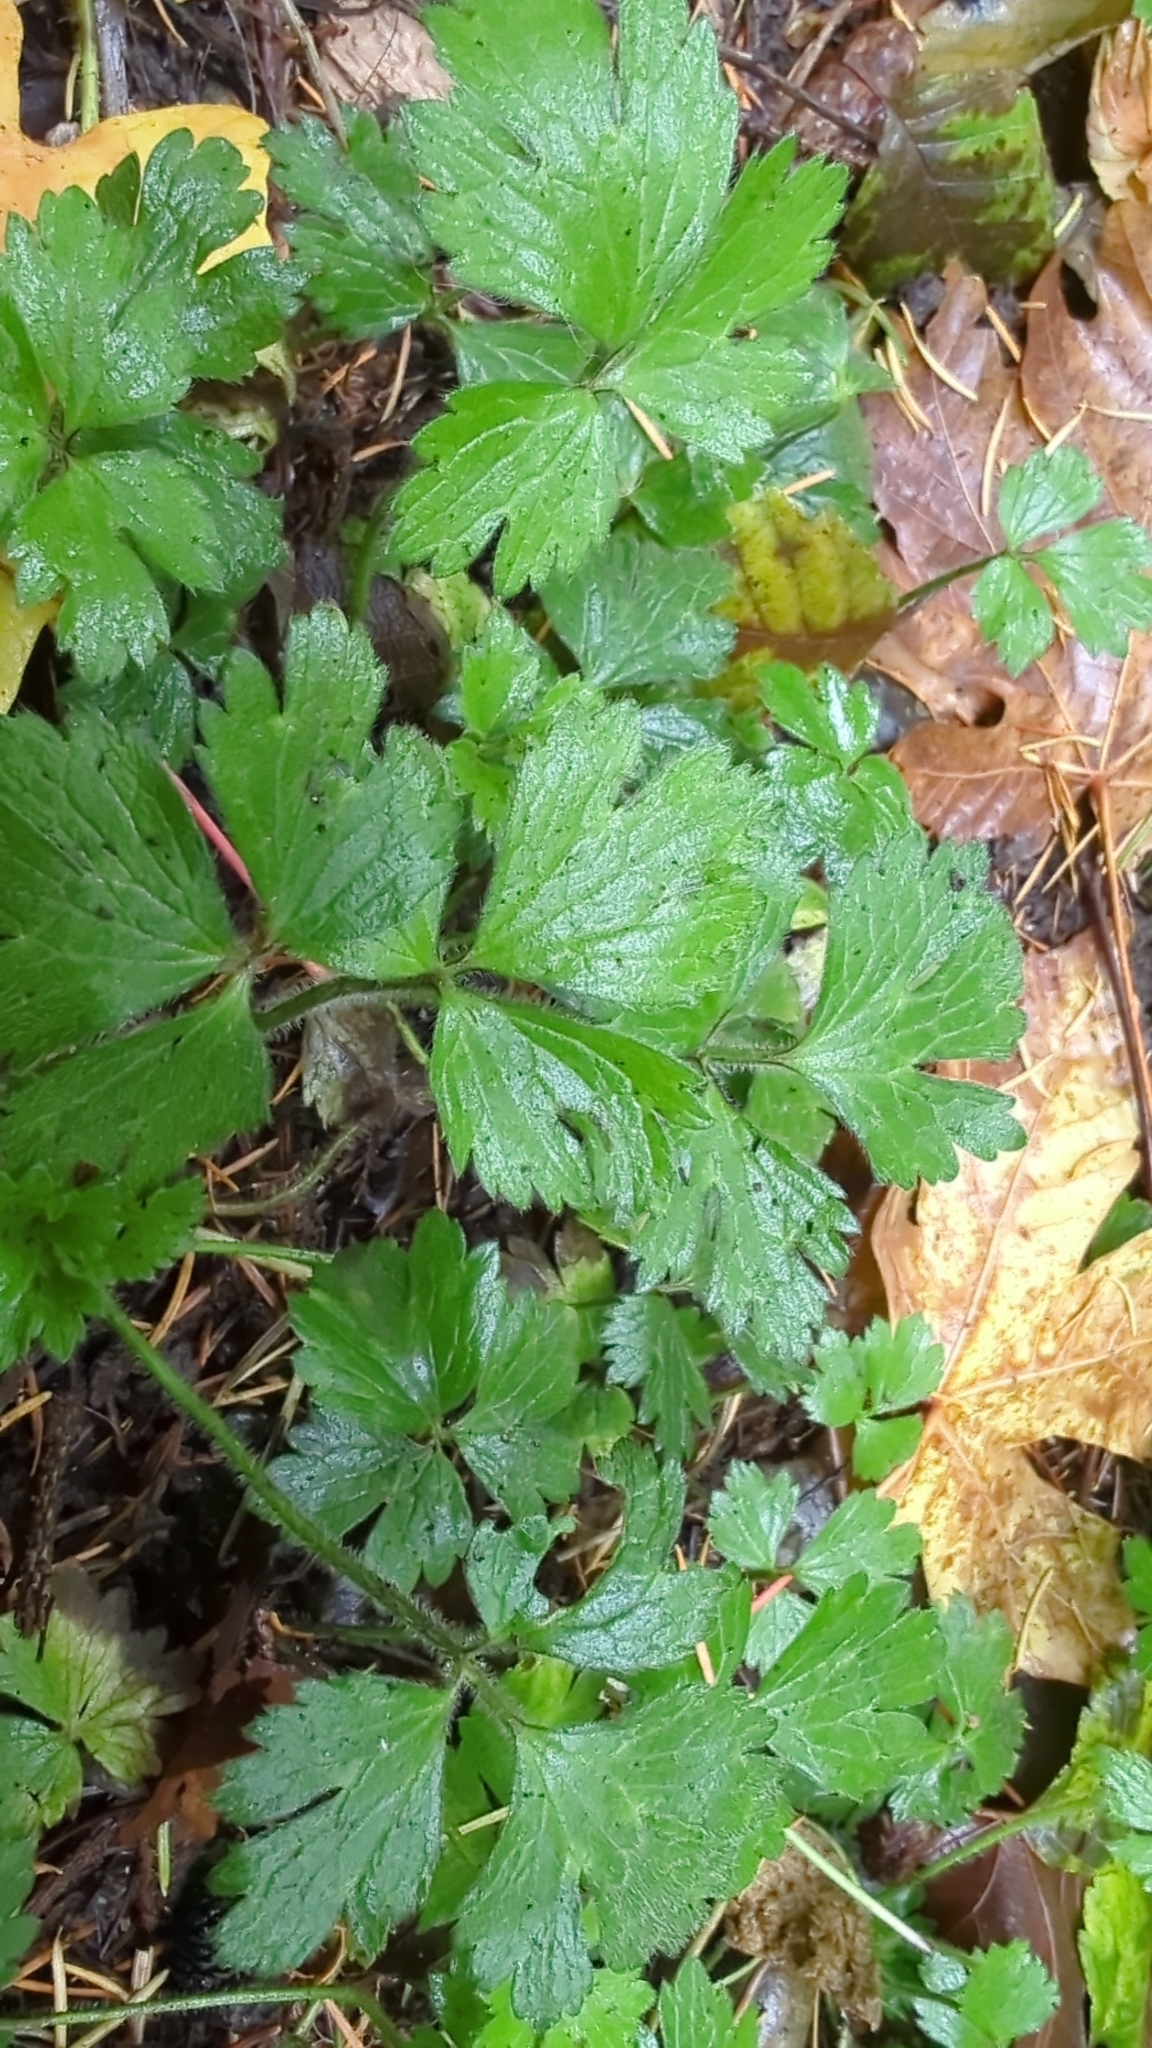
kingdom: Plantae
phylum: Tracheophyta
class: Magnoliopsida
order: Ranunculales
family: Ranunculaceae
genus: Ranunculus
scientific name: Ranunculus repens
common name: Creeping buttercup
